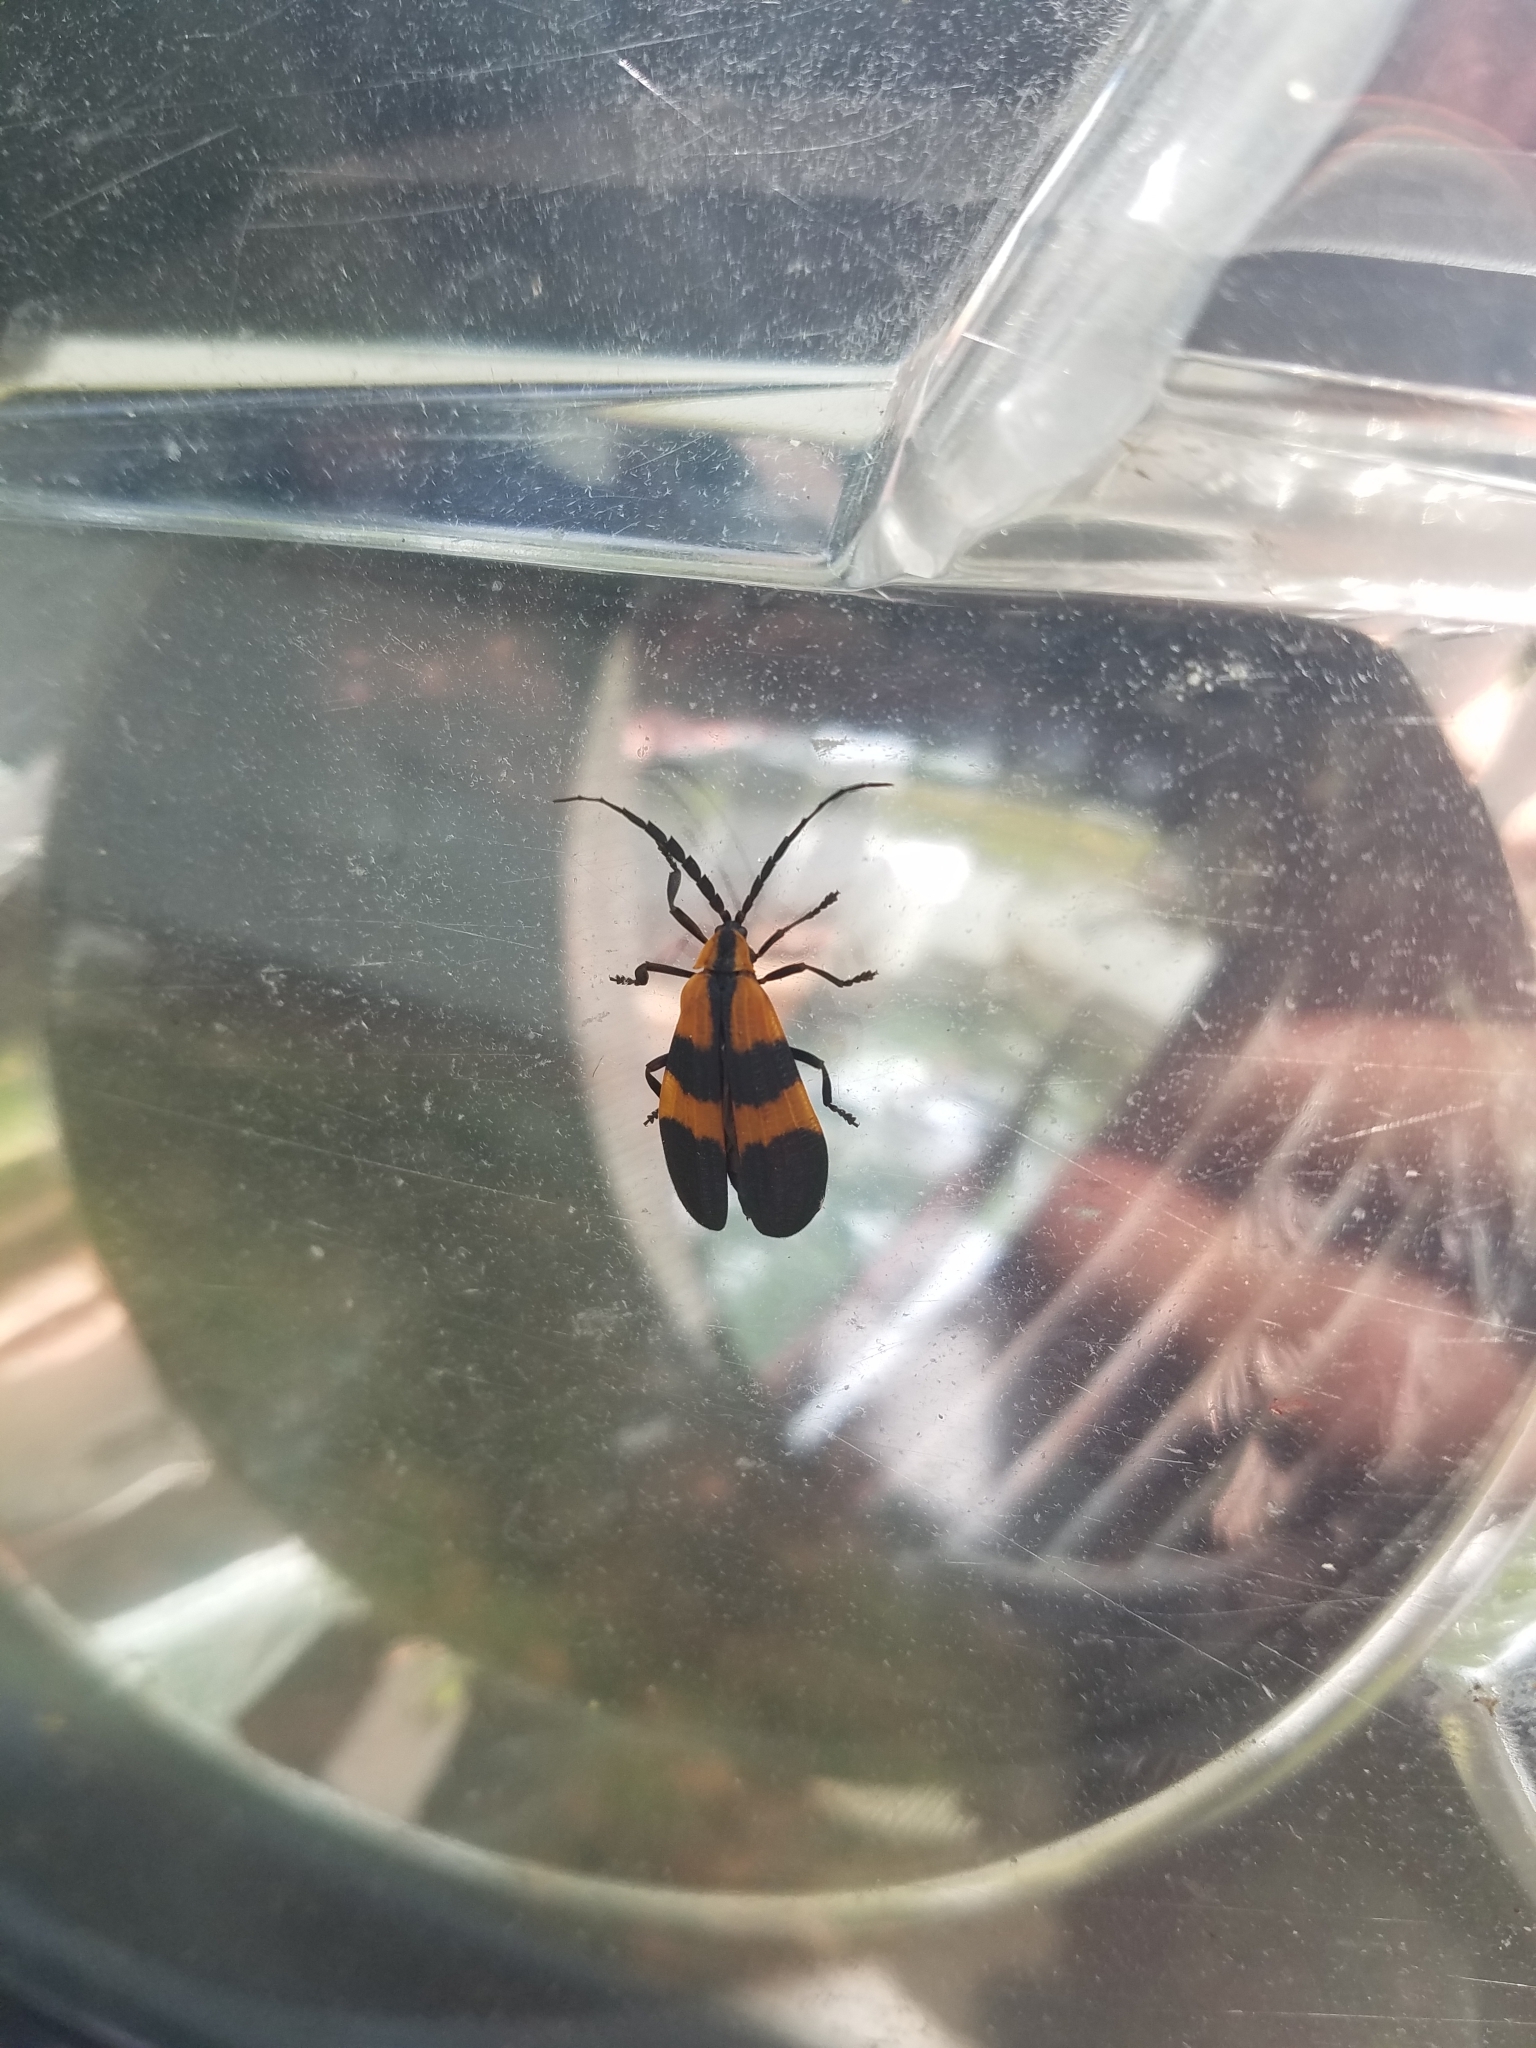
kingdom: Animalia
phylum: Arthropoda
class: Insecta
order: Coleoptera
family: Lycidae
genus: Calopteron
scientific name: Calopteron discrepans
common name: Banded net-winged beetle
